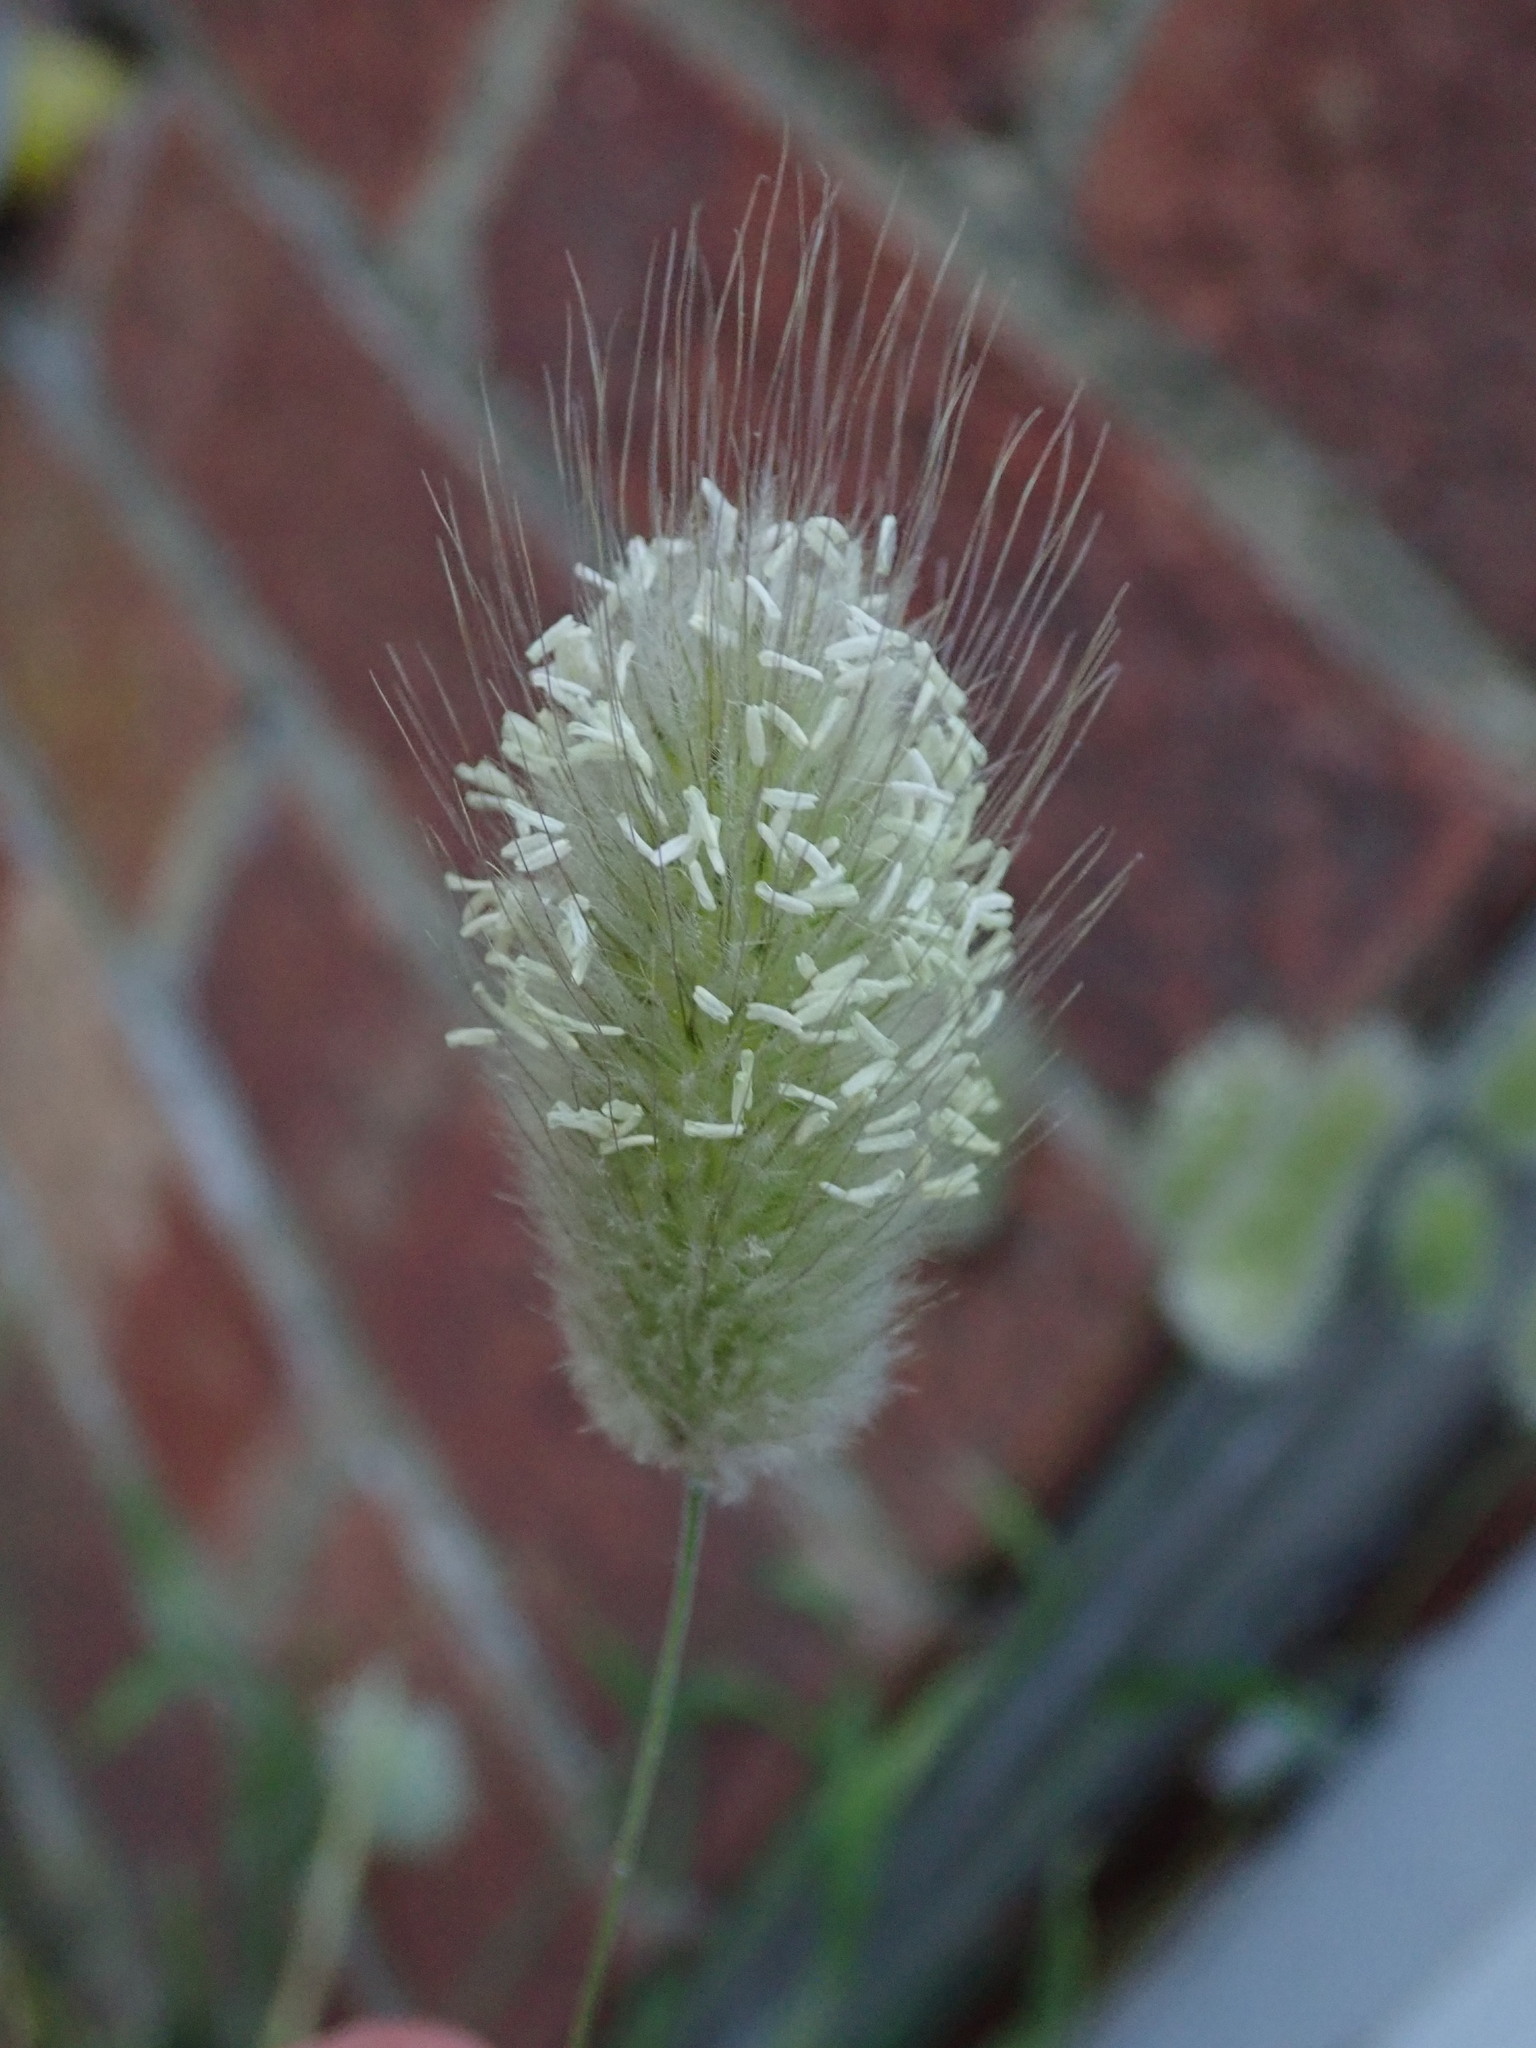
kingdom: Plantae
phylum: Tracheophyta
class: Liliopsida
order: Poales
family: Poaceae
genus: Lagurus
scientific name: Lagurus ovatus
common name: Hare's-tail
